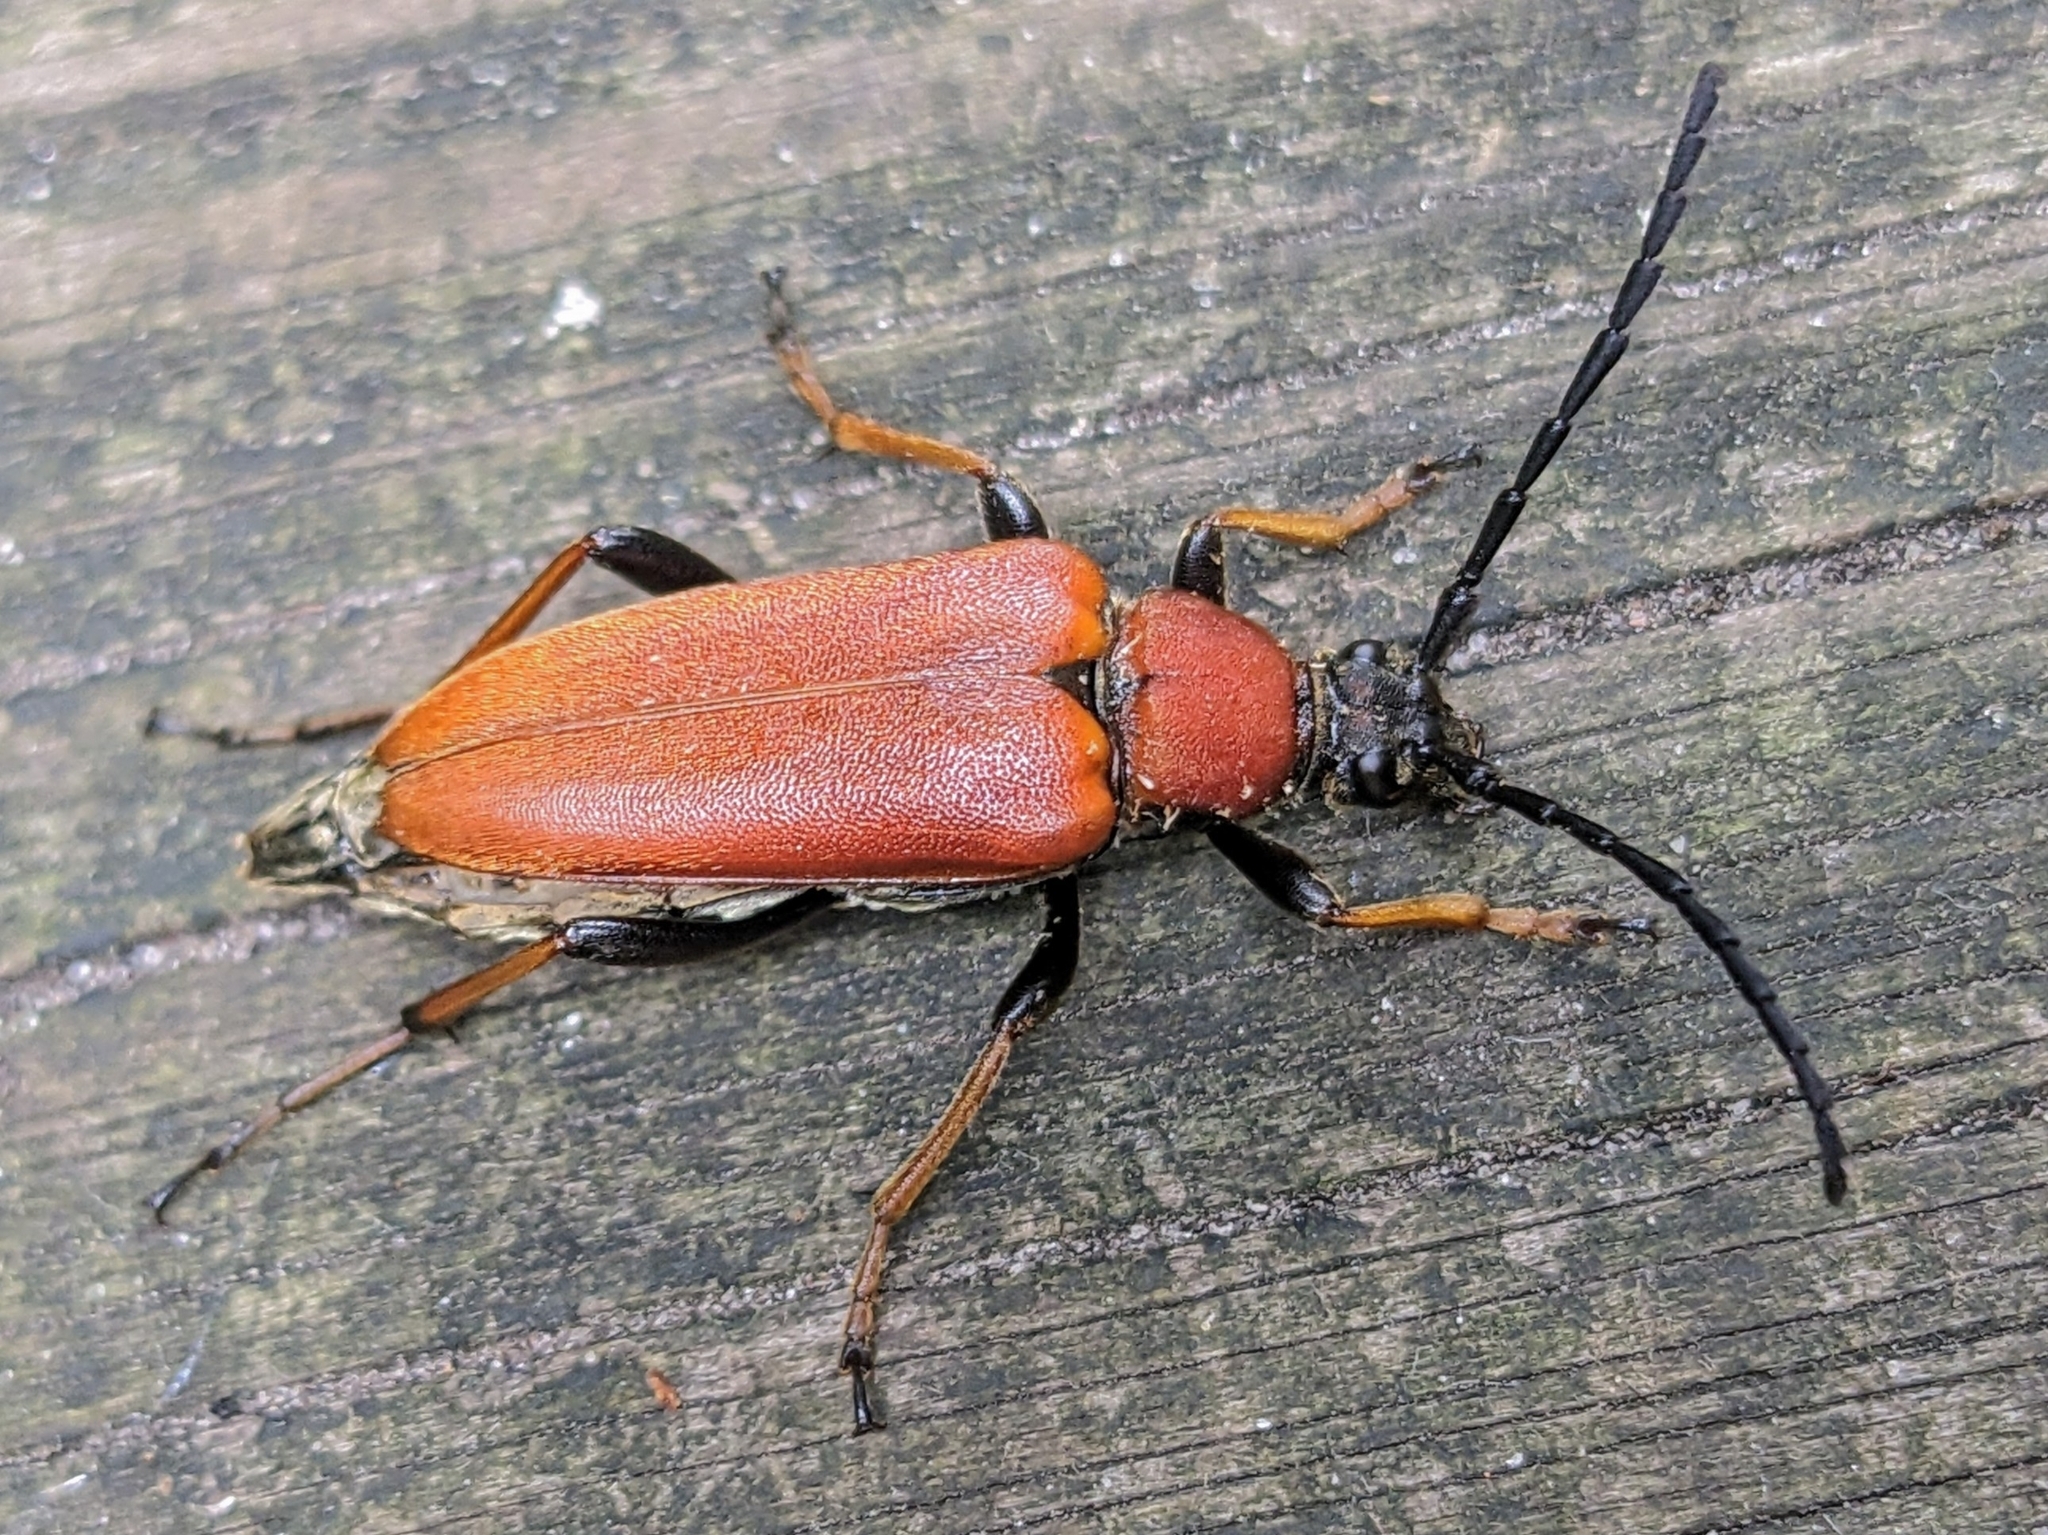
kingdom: Animalia
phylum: Arthropoda
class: Insecta
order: Coleoptera
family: Cerambycidae
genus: Stictoleptura
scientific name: Stictoleptura rubra
